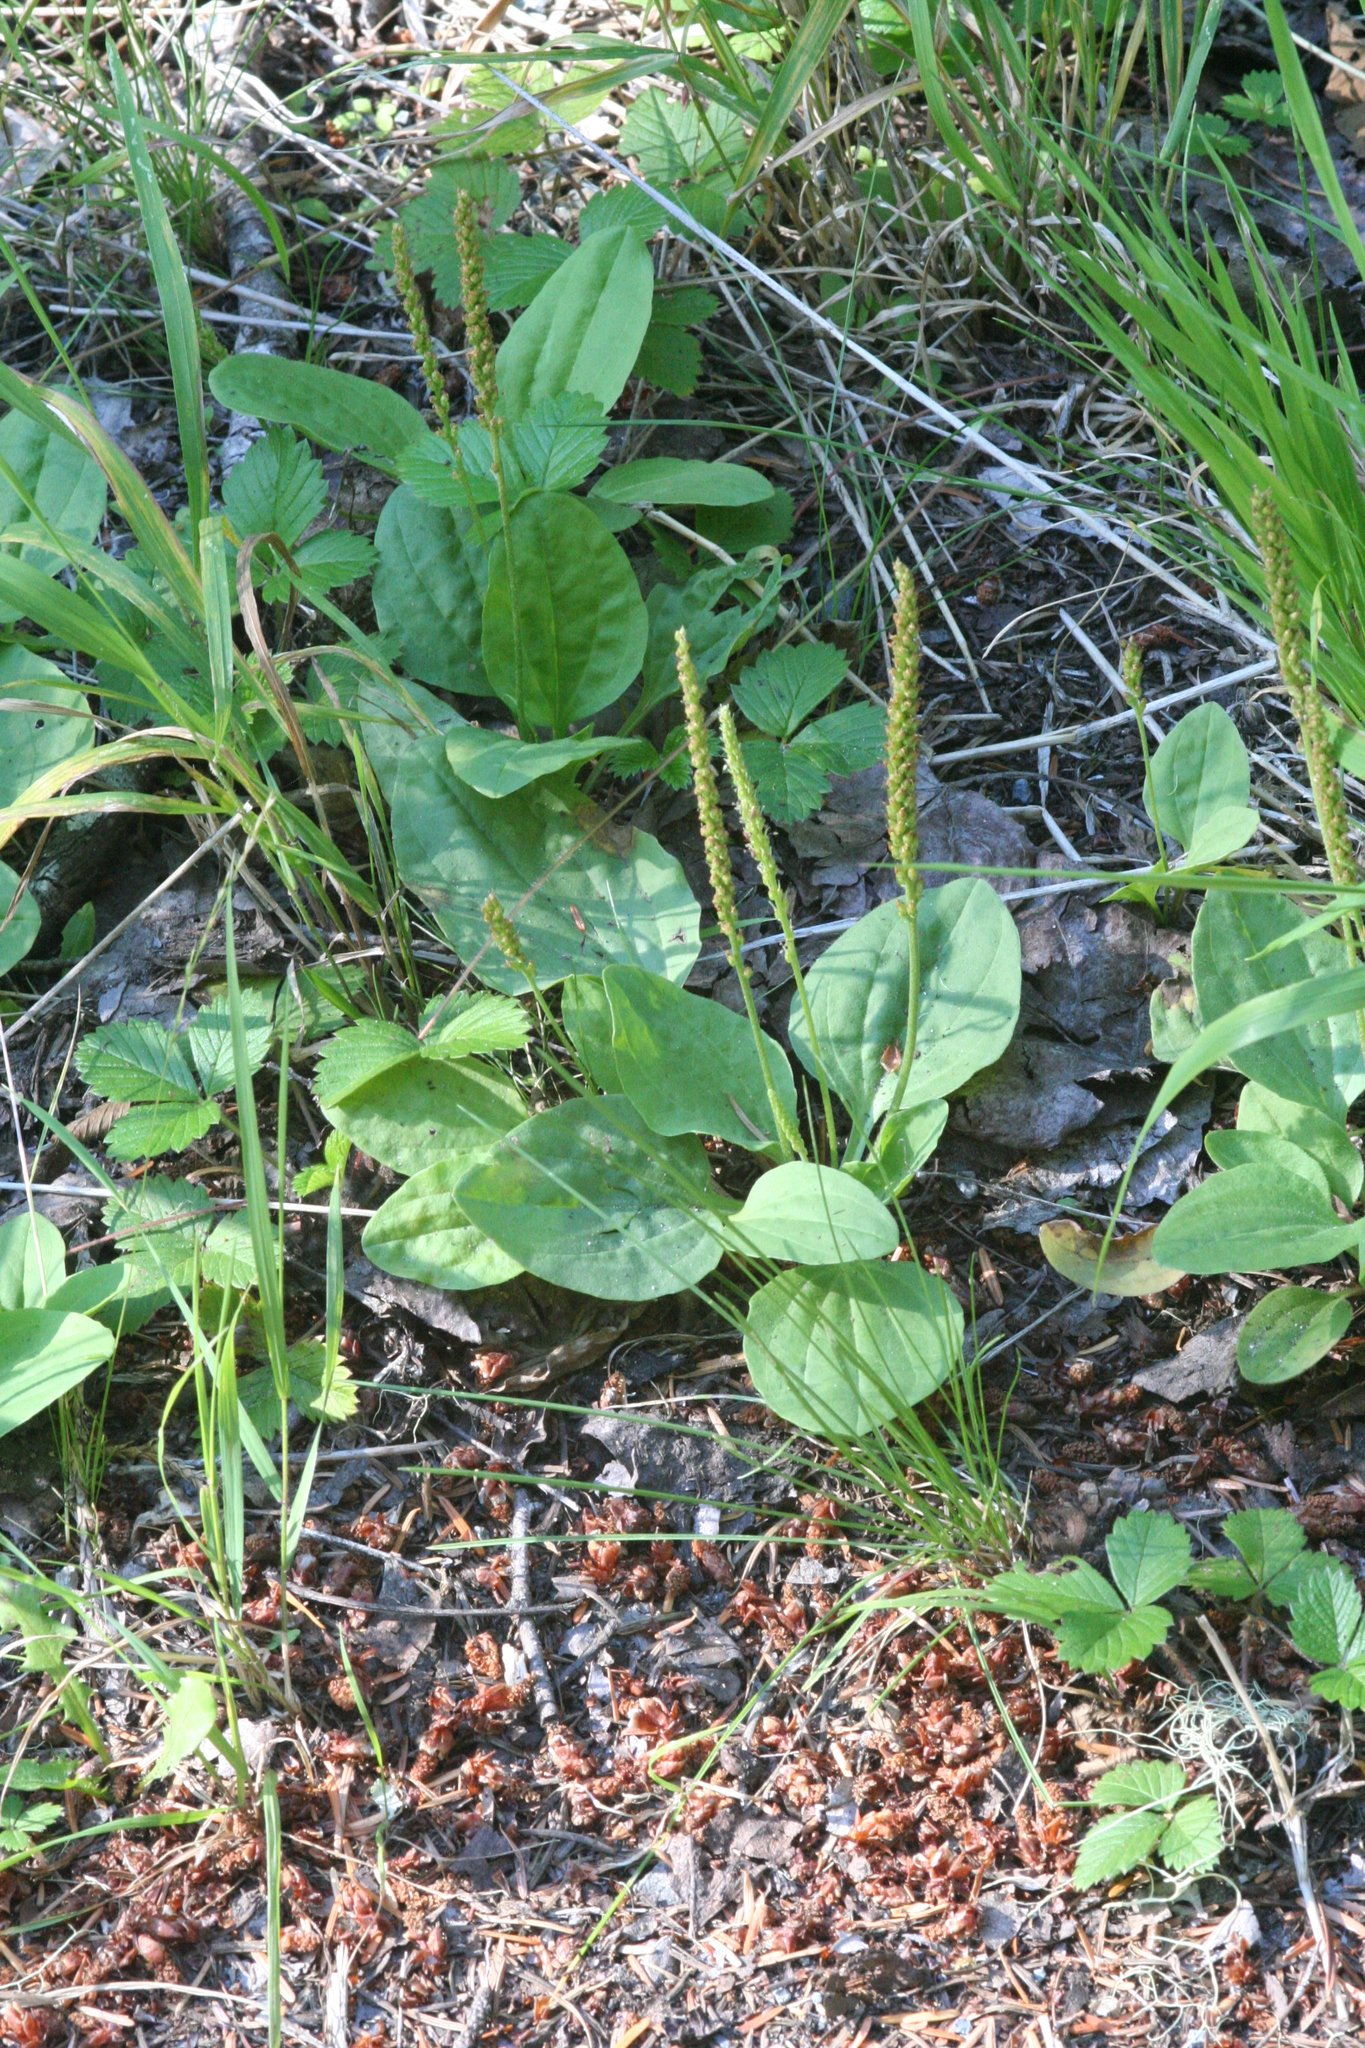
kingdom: Plantae
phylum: Tracheophyta
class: Magnoliopsida
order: Lamiales
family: Plantaginaceae
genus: Plantago
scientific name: Plantago major
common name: Common plantain
